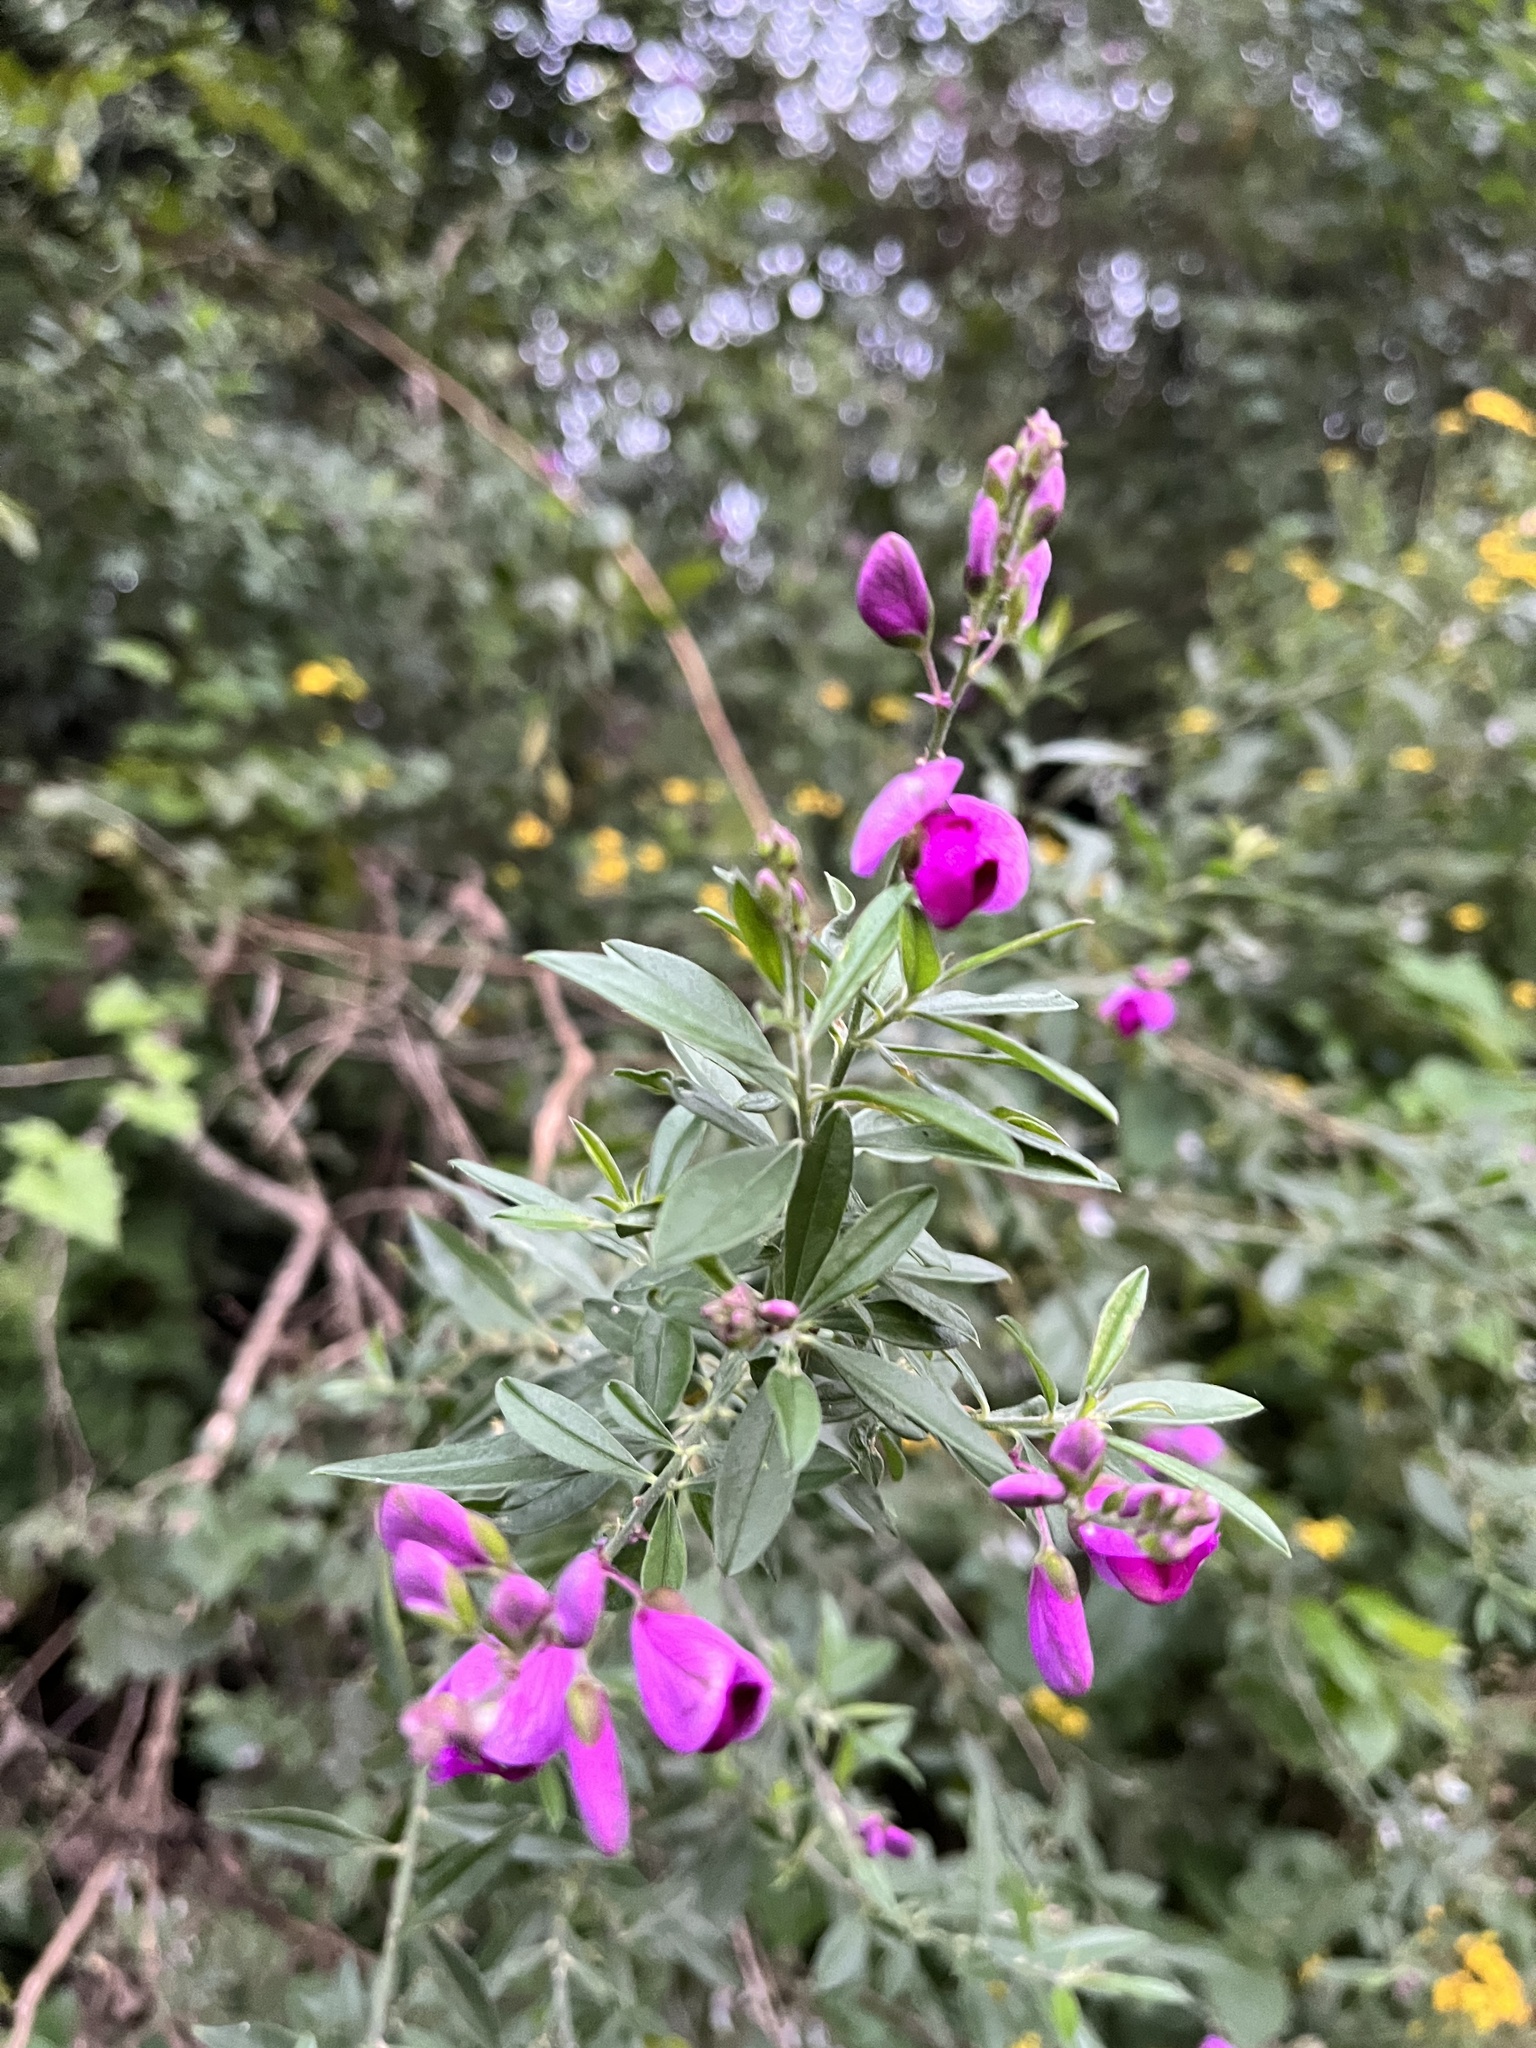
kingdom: Plantae
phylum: Tracheophyta
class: Magnoliopsida
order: Fabales
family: Polygalaceae
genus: Polygala
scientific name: Polygala virgata
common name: Milkwort
